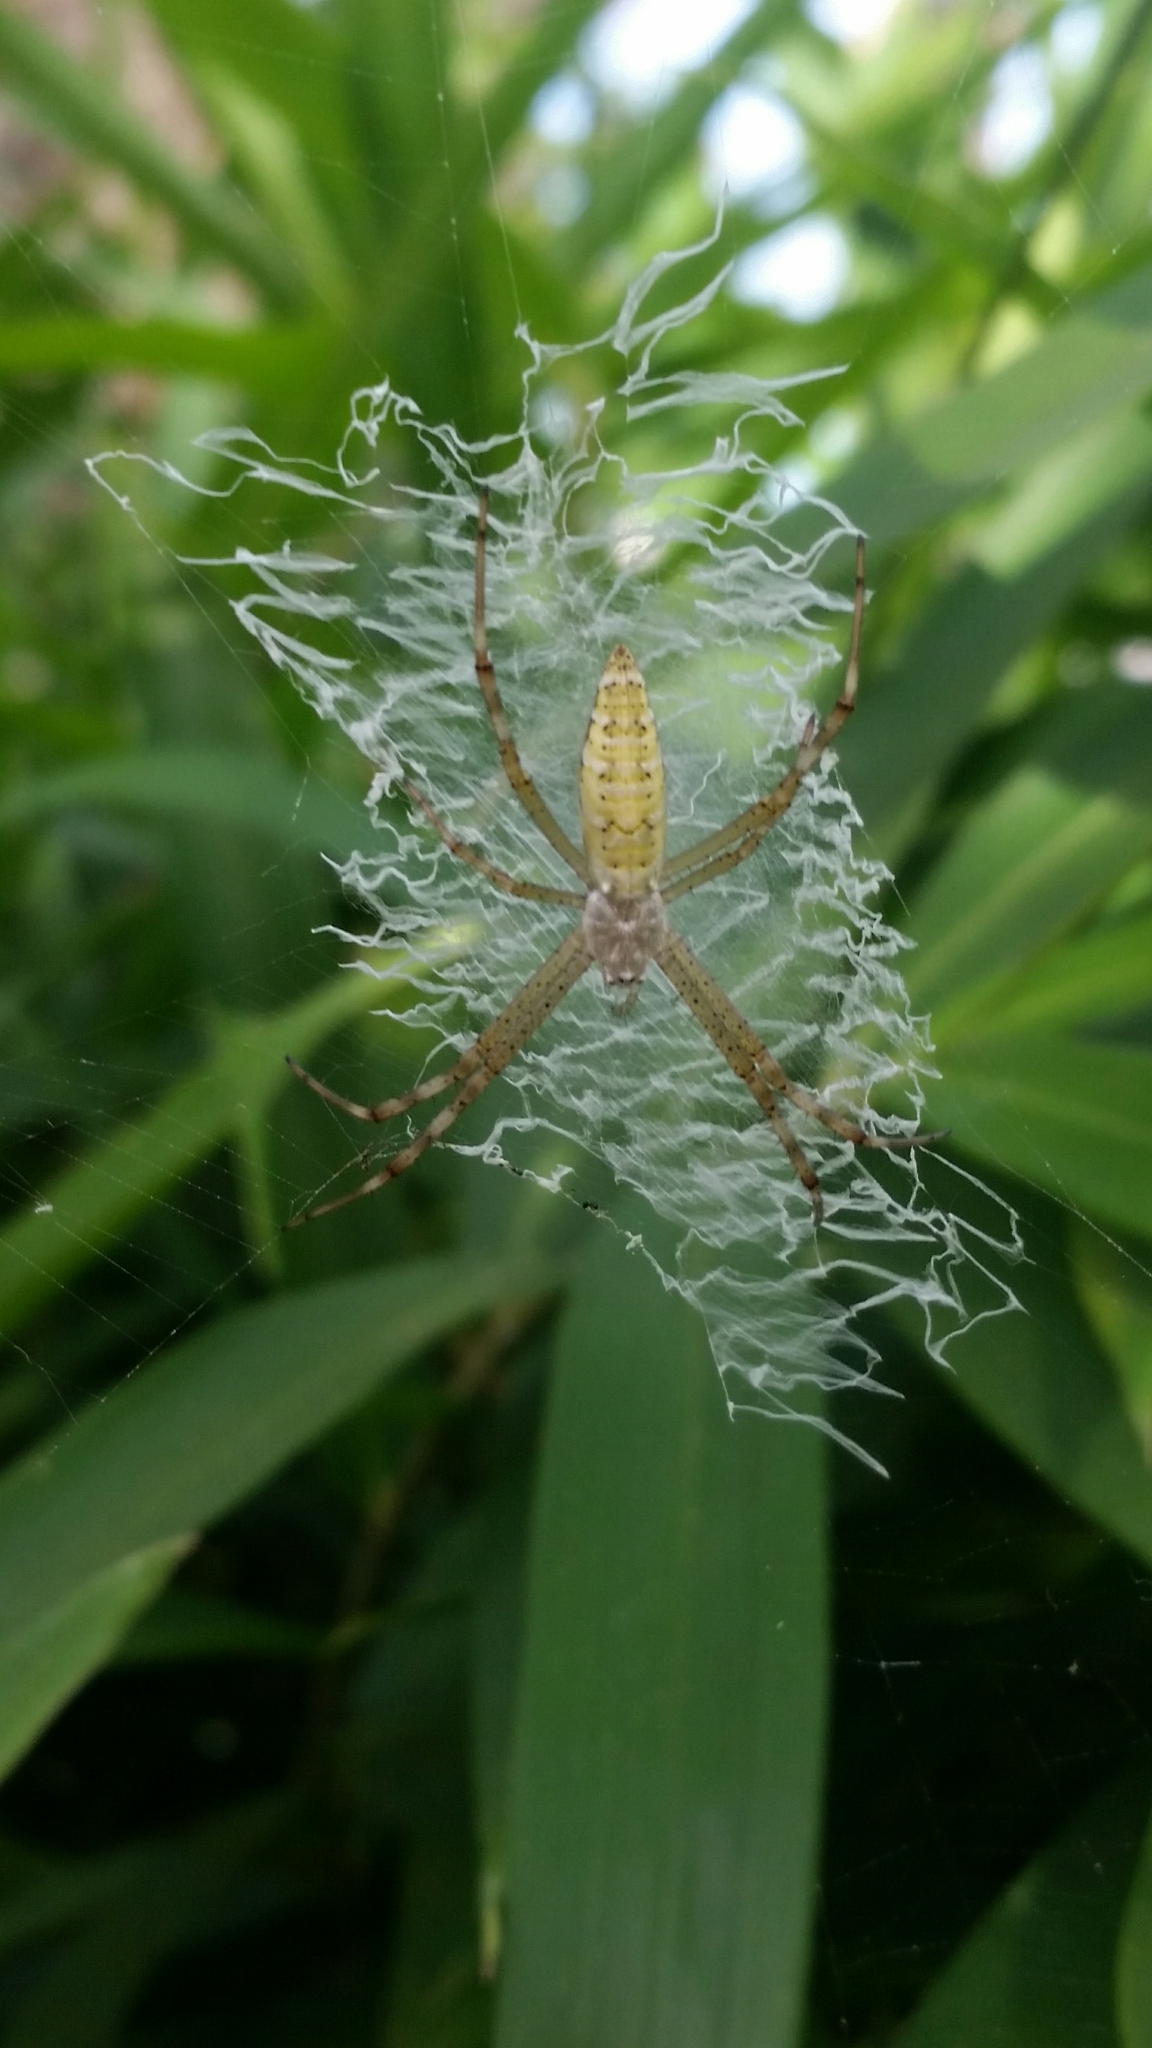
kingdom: Animalia
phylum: Arthropoda
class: Arachnida
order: Araneae
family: Araneidae
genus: Argiope
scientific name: Argiope bruennichi
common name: Wasp spider
